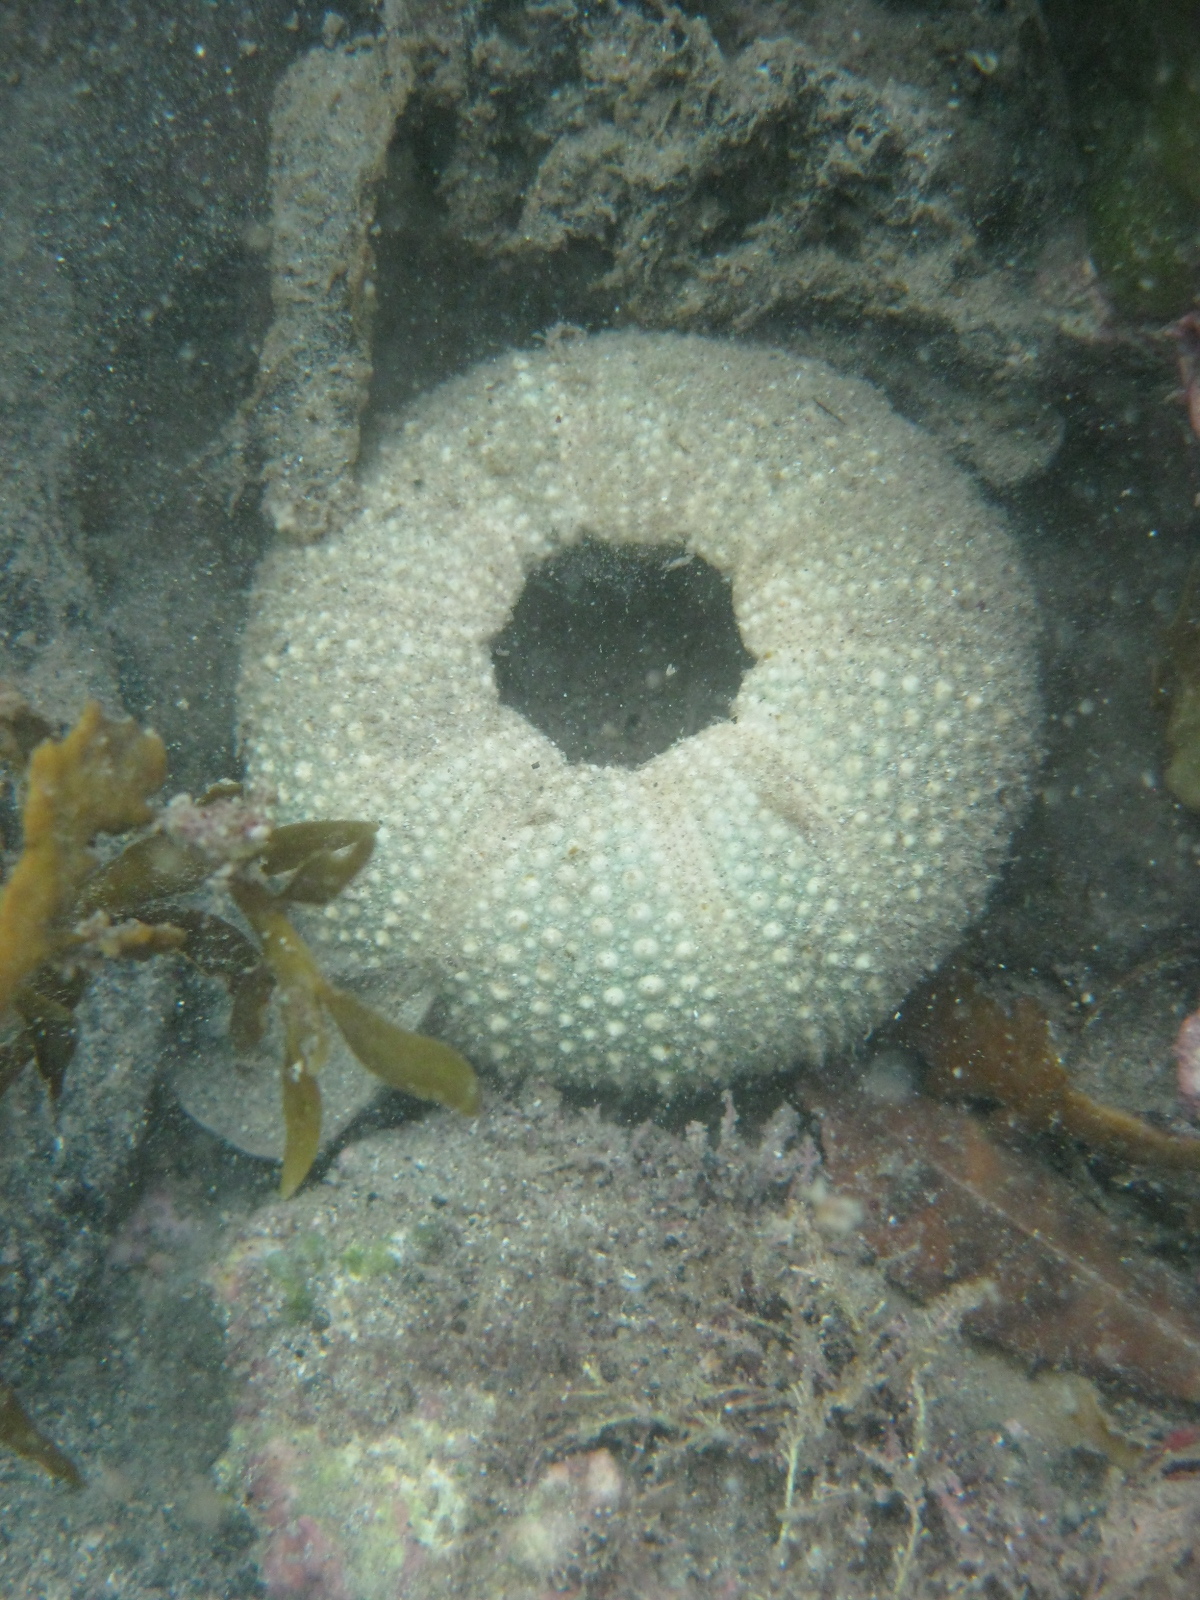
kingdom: Animalia
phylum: Echinodermata
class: Echinoidea
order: Camarodonta
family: Echinometridae
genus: Evechinus
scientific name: Evechinus chloroticus
